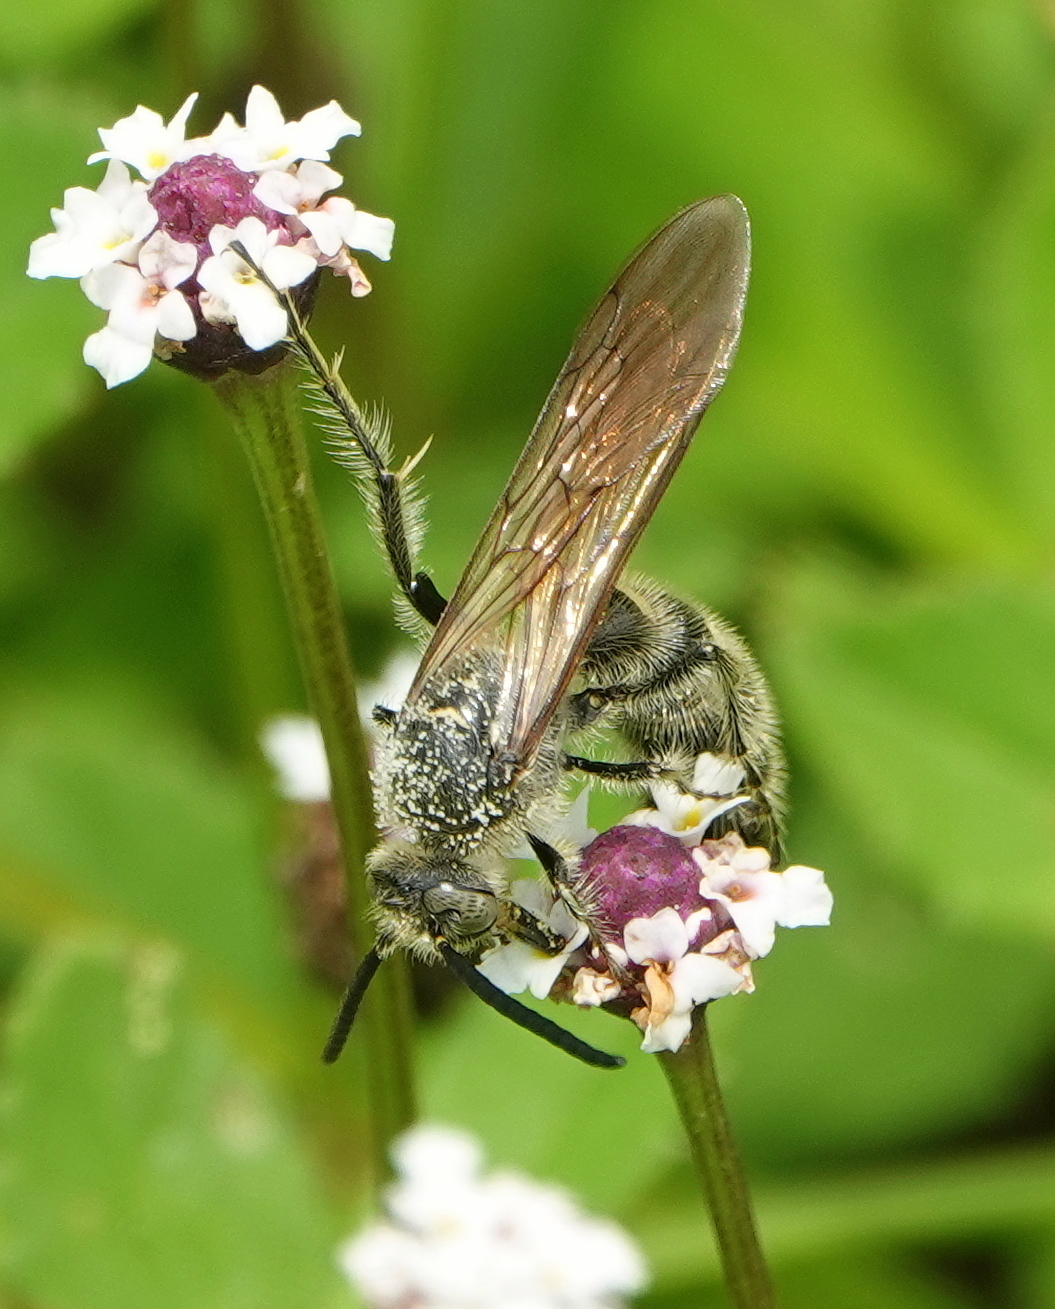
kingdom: Animalia
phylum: Arthropoda
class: Insecta
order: Hymenoptera
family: Scoliidae
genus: Dielis
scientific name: Dielis
